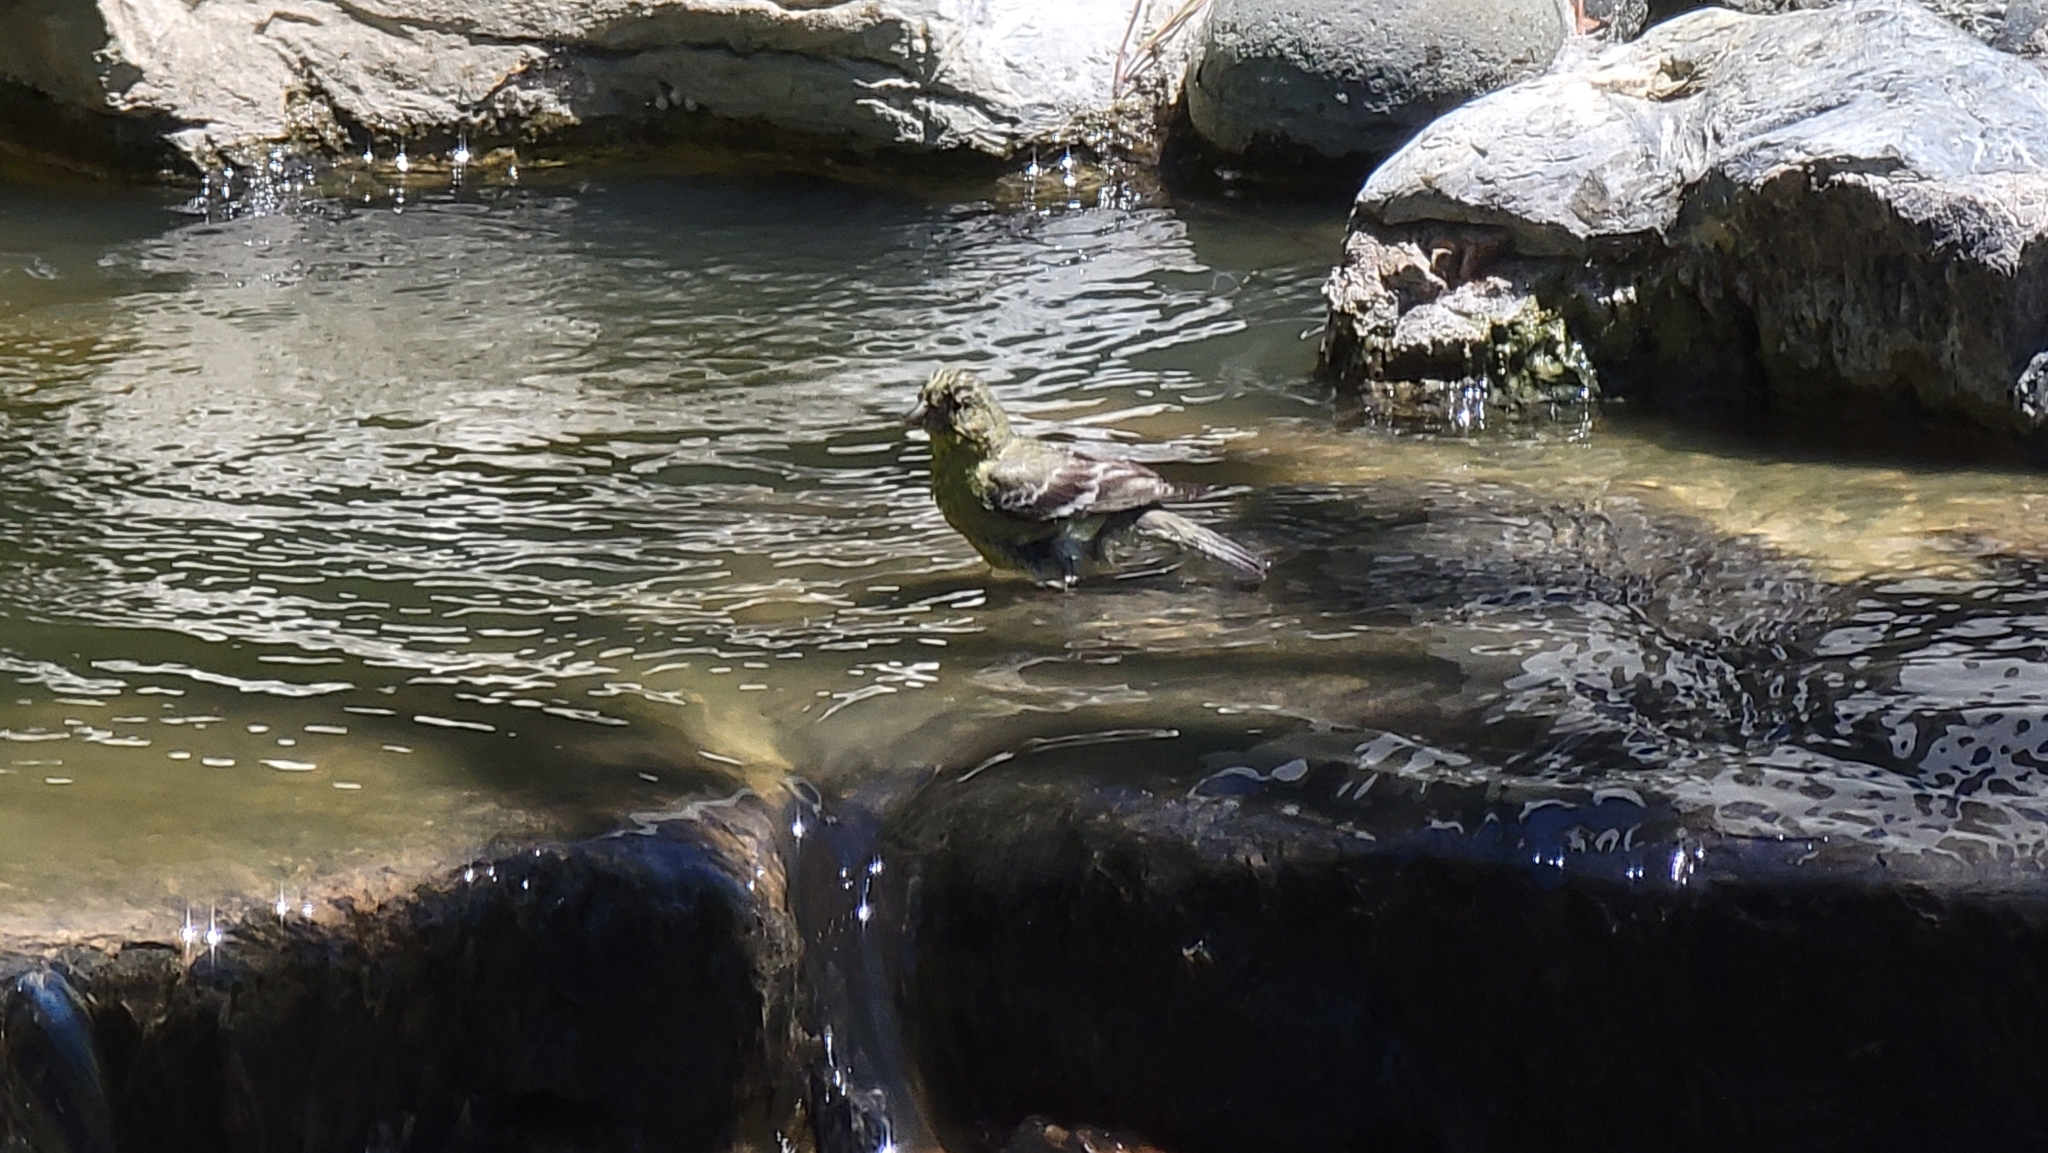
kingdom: Animalia
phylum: Chordata
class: Aves
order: Passeriformes
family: Fringillidae
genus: Spinus
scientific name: Spinus psaltria
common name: Lesser goldfinch
